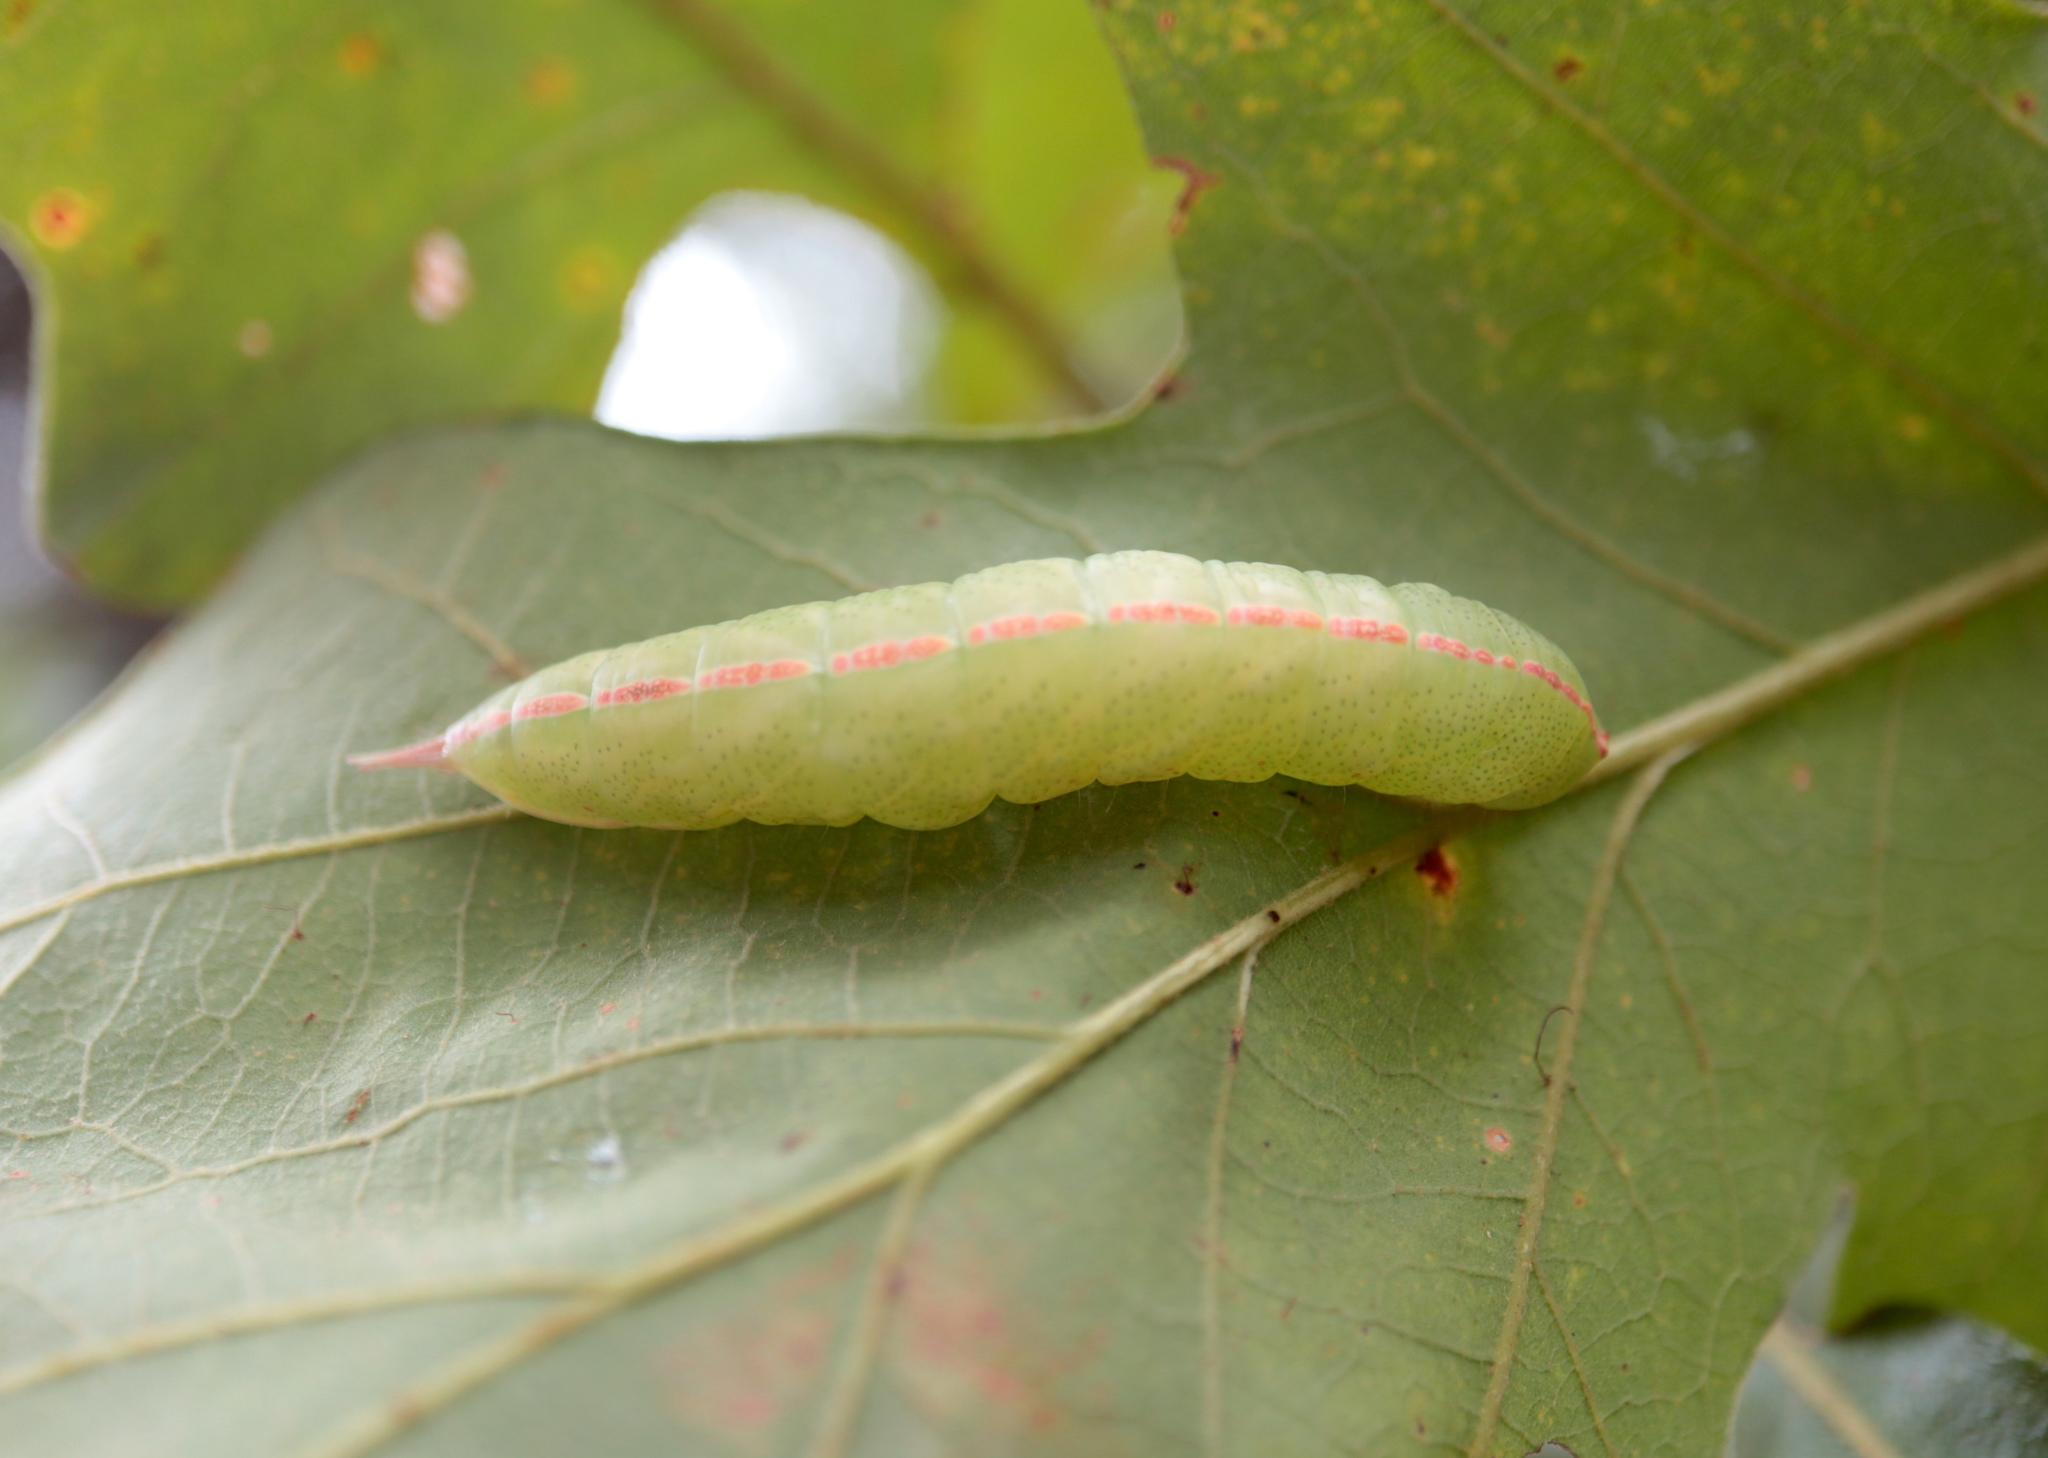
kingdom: Animalia
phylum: Arthropoda
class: Insecta
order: Lepidoptera
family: Notodontidae
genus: Macrurocampa
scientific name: Macrurocampa marthesia
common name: Mottled prominent
